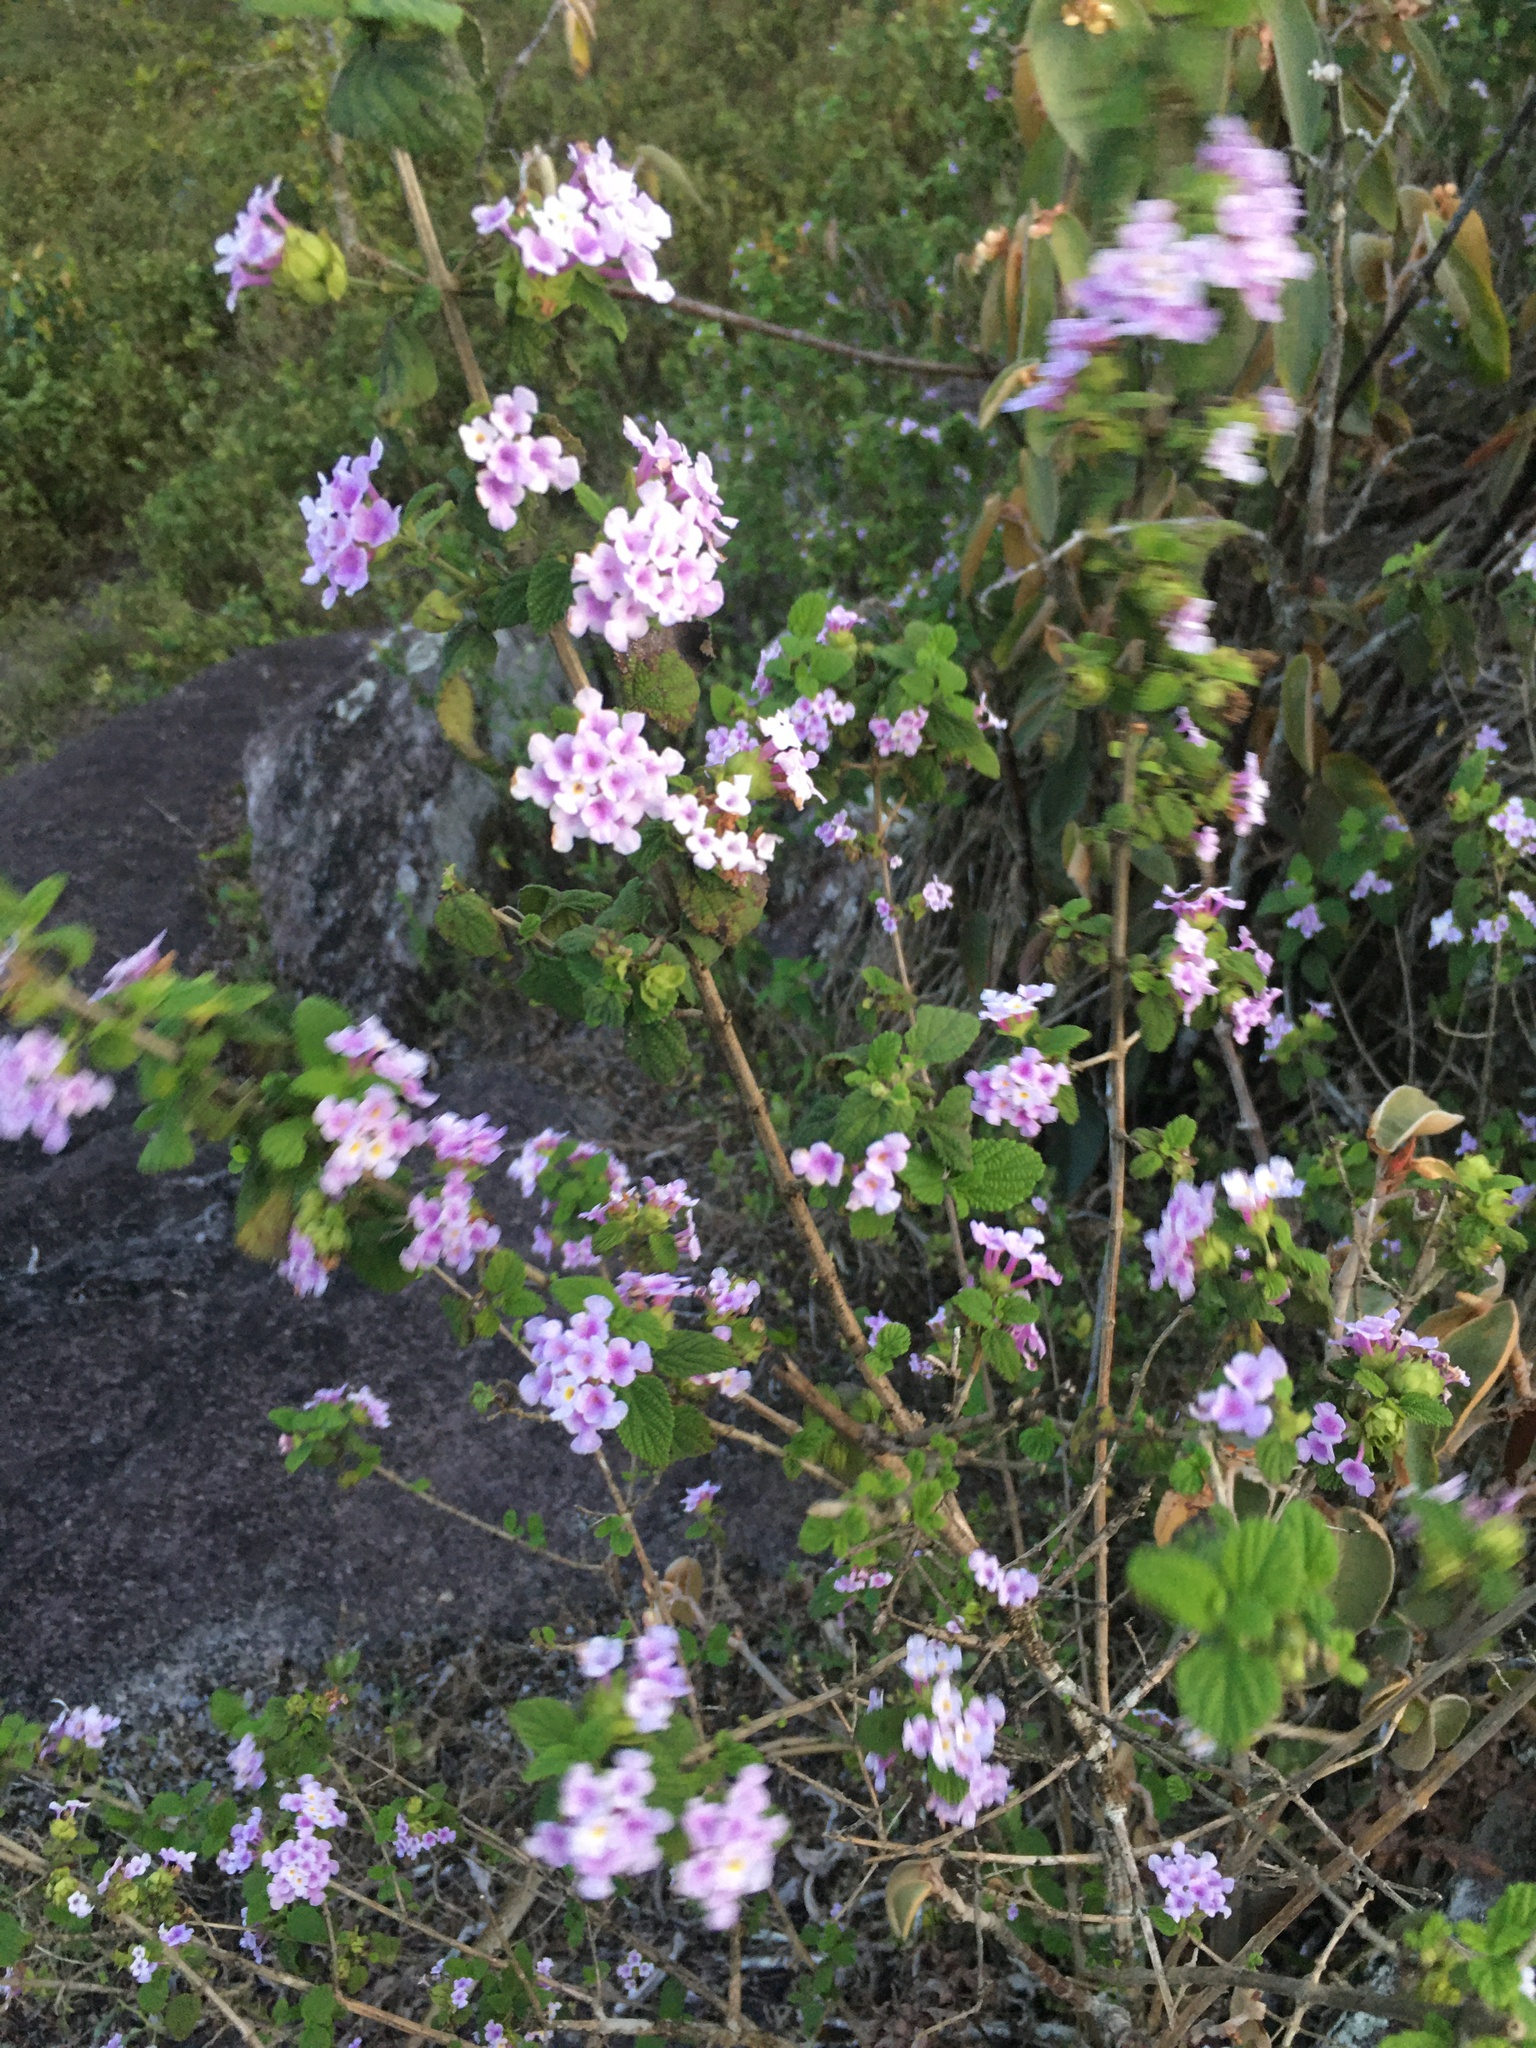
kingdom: Plantae
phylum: Tracheophyta
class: Magnoliopsida
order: Lamiales
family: Verbenaceae
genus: Lantana
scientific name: Lantana fucata
